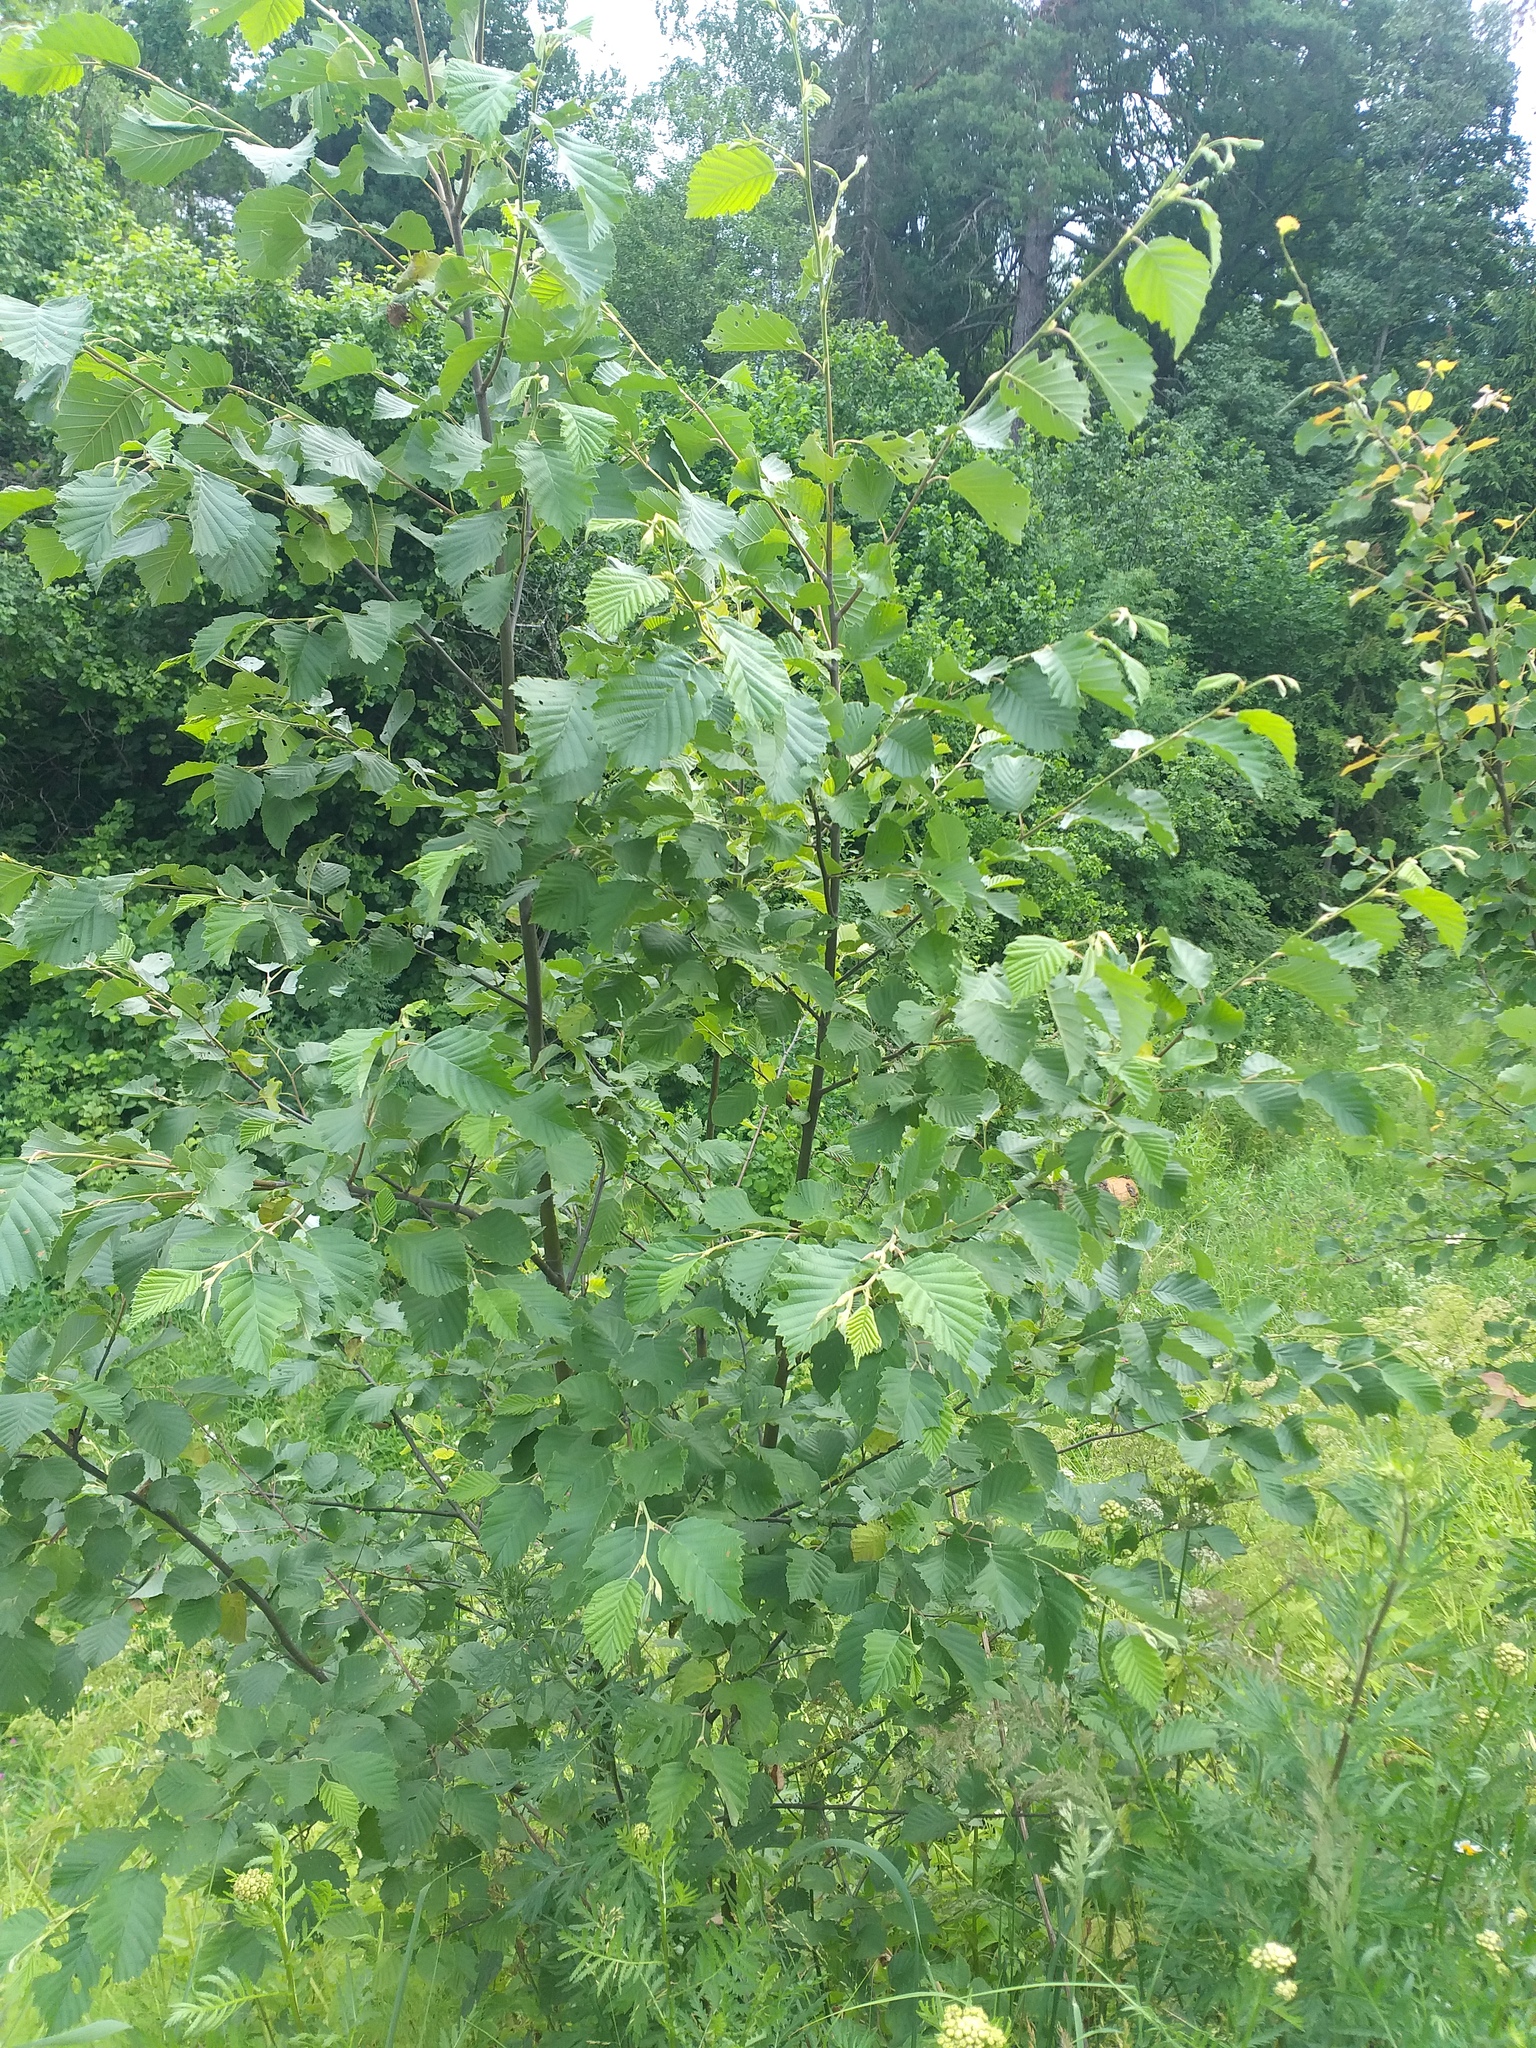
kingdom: Plantae
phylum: Tracheophyta
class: Magnoliopsida
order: Fagales
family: Betulaceae
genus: Alnus
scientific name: Alnus incana
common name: Grey alder
